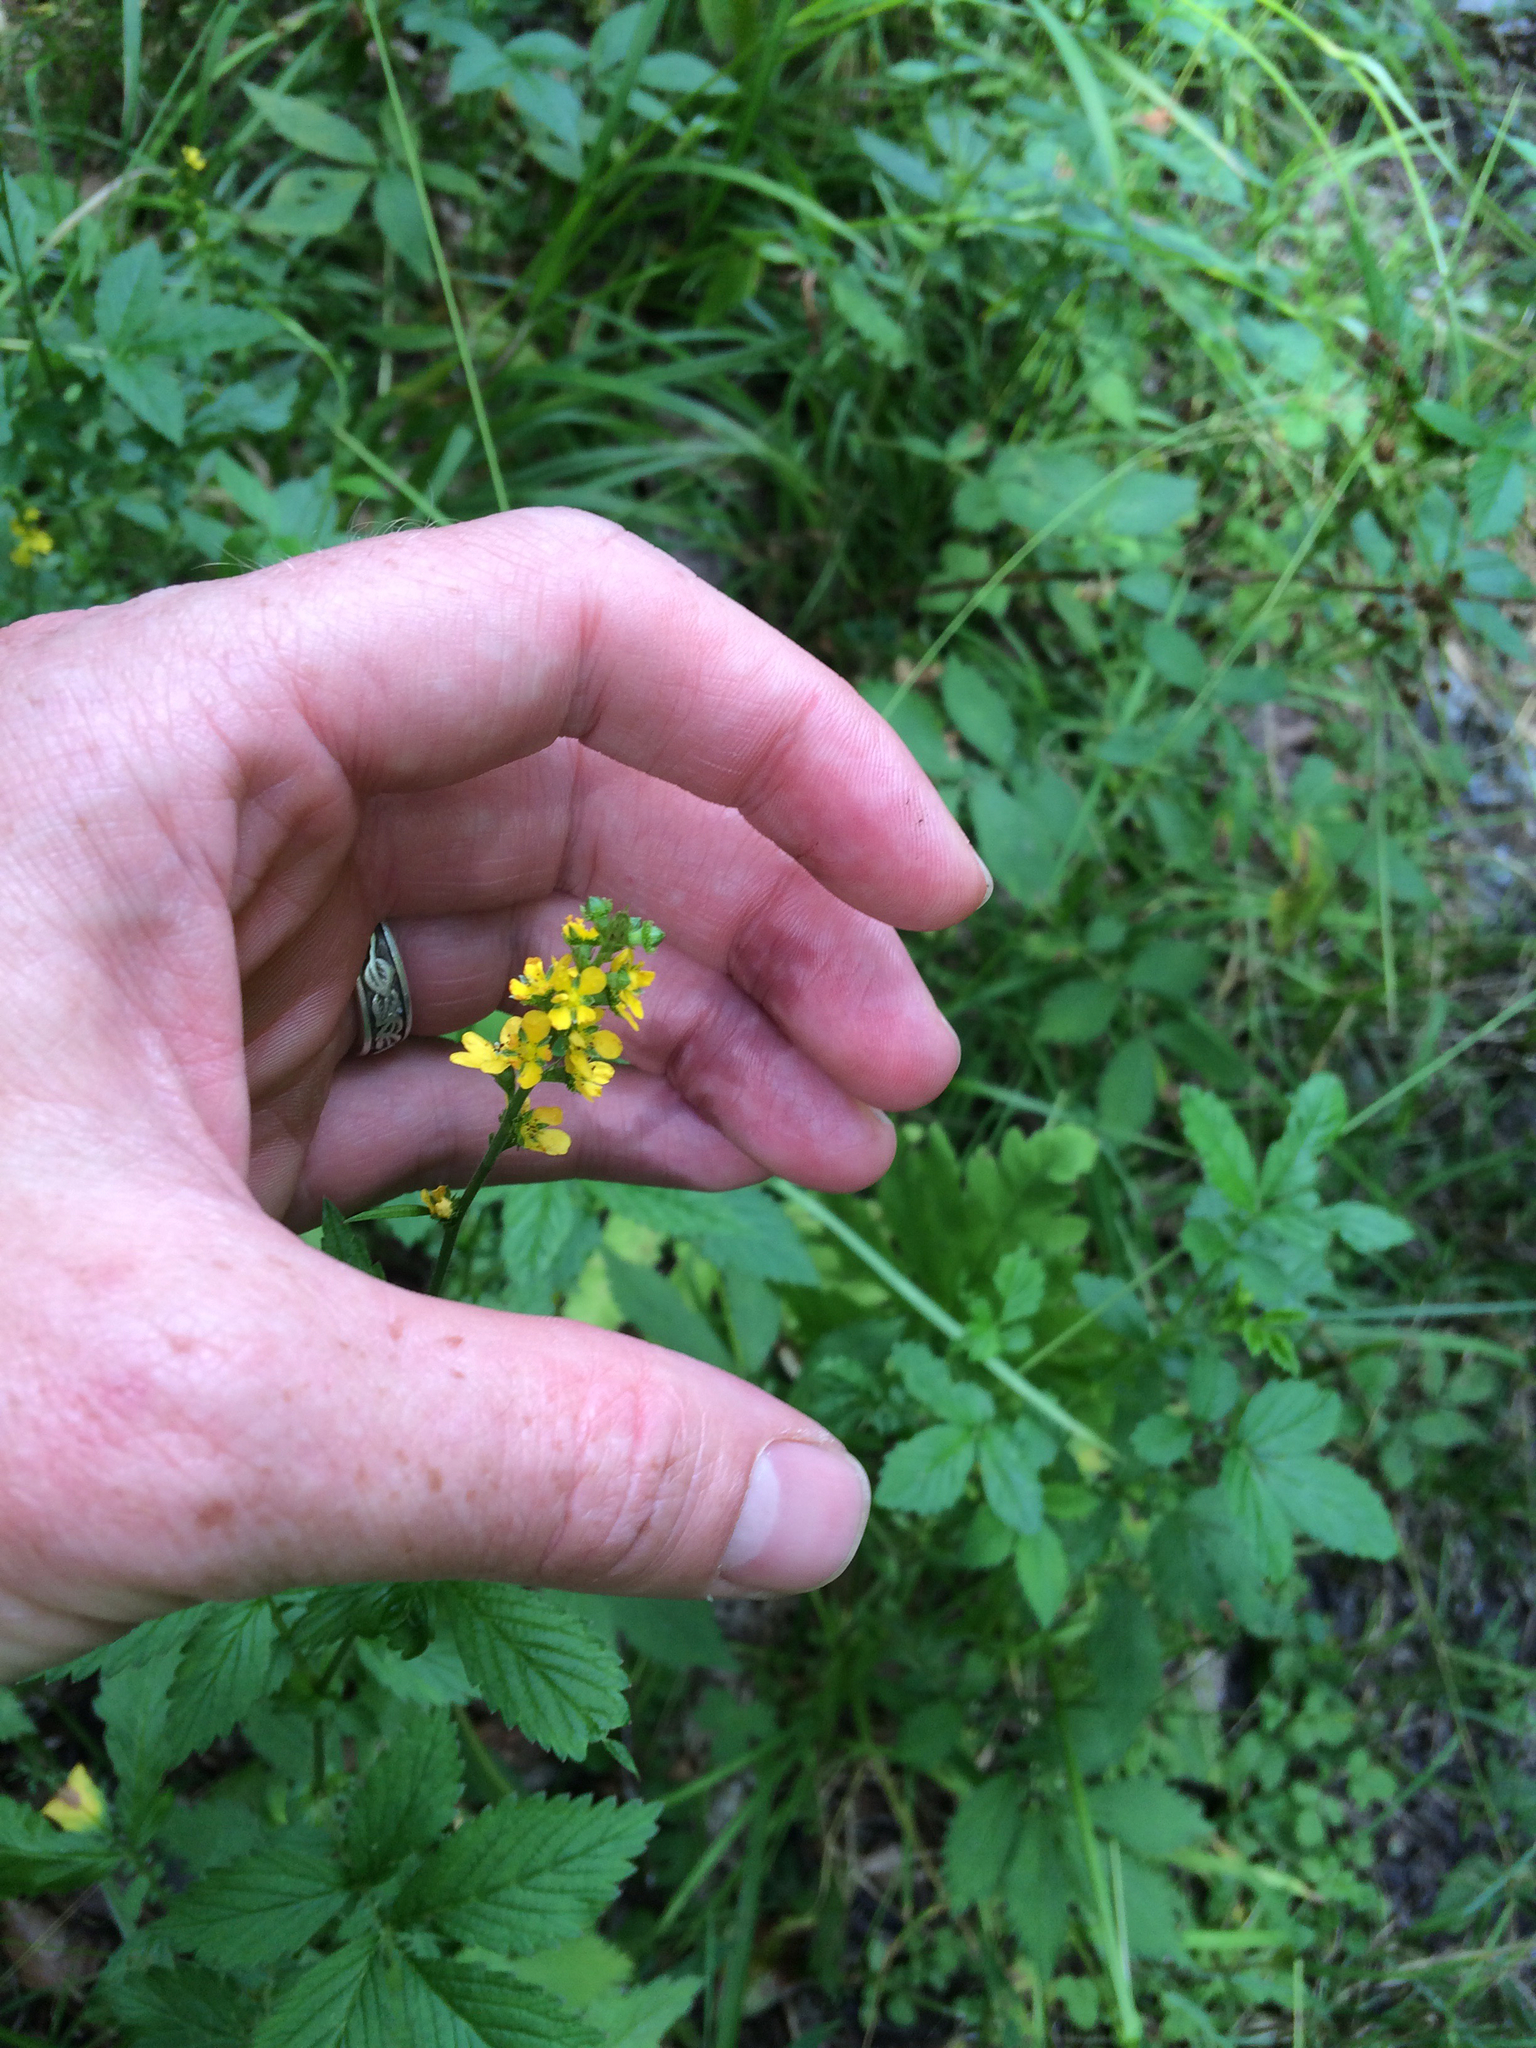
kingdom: Plantae
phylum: Tracheophyta
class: Magnoliopsida
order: Rosales
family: Rosaceae
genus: Agrimonia
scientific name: Agrimonia gryposepala
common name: Common agrimony
